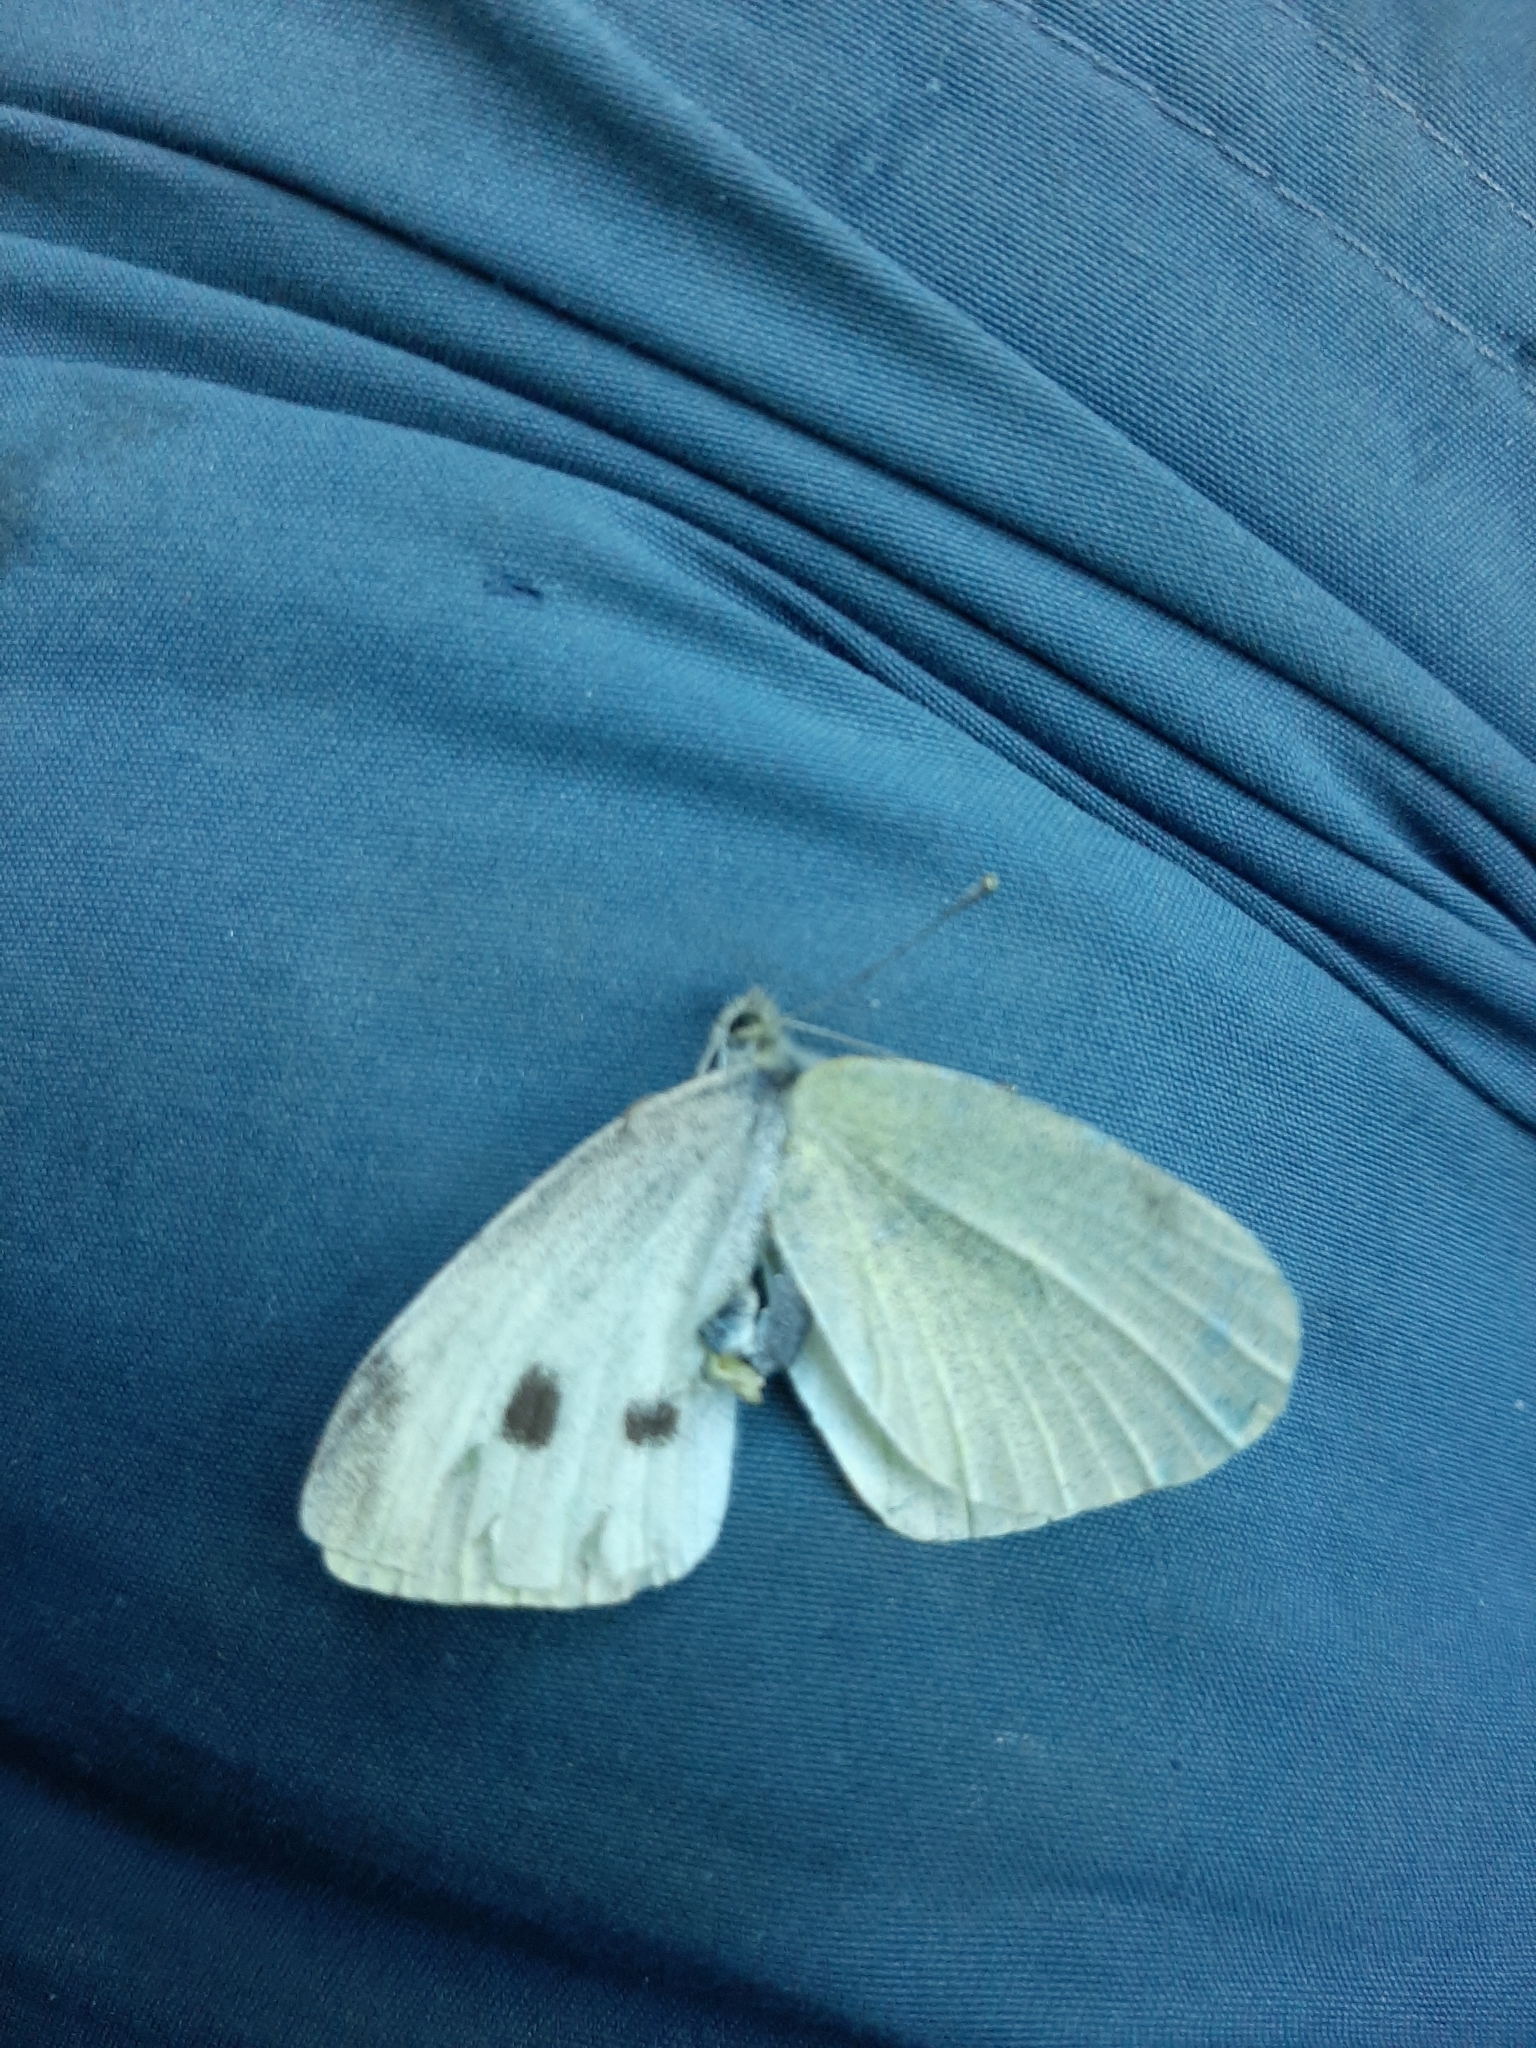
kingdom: Animalia
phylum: Arthropoda
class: Insecta
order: Lepidoptera
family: Pieridae
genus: Pieris
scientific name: Pieris rapae
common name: Small white
